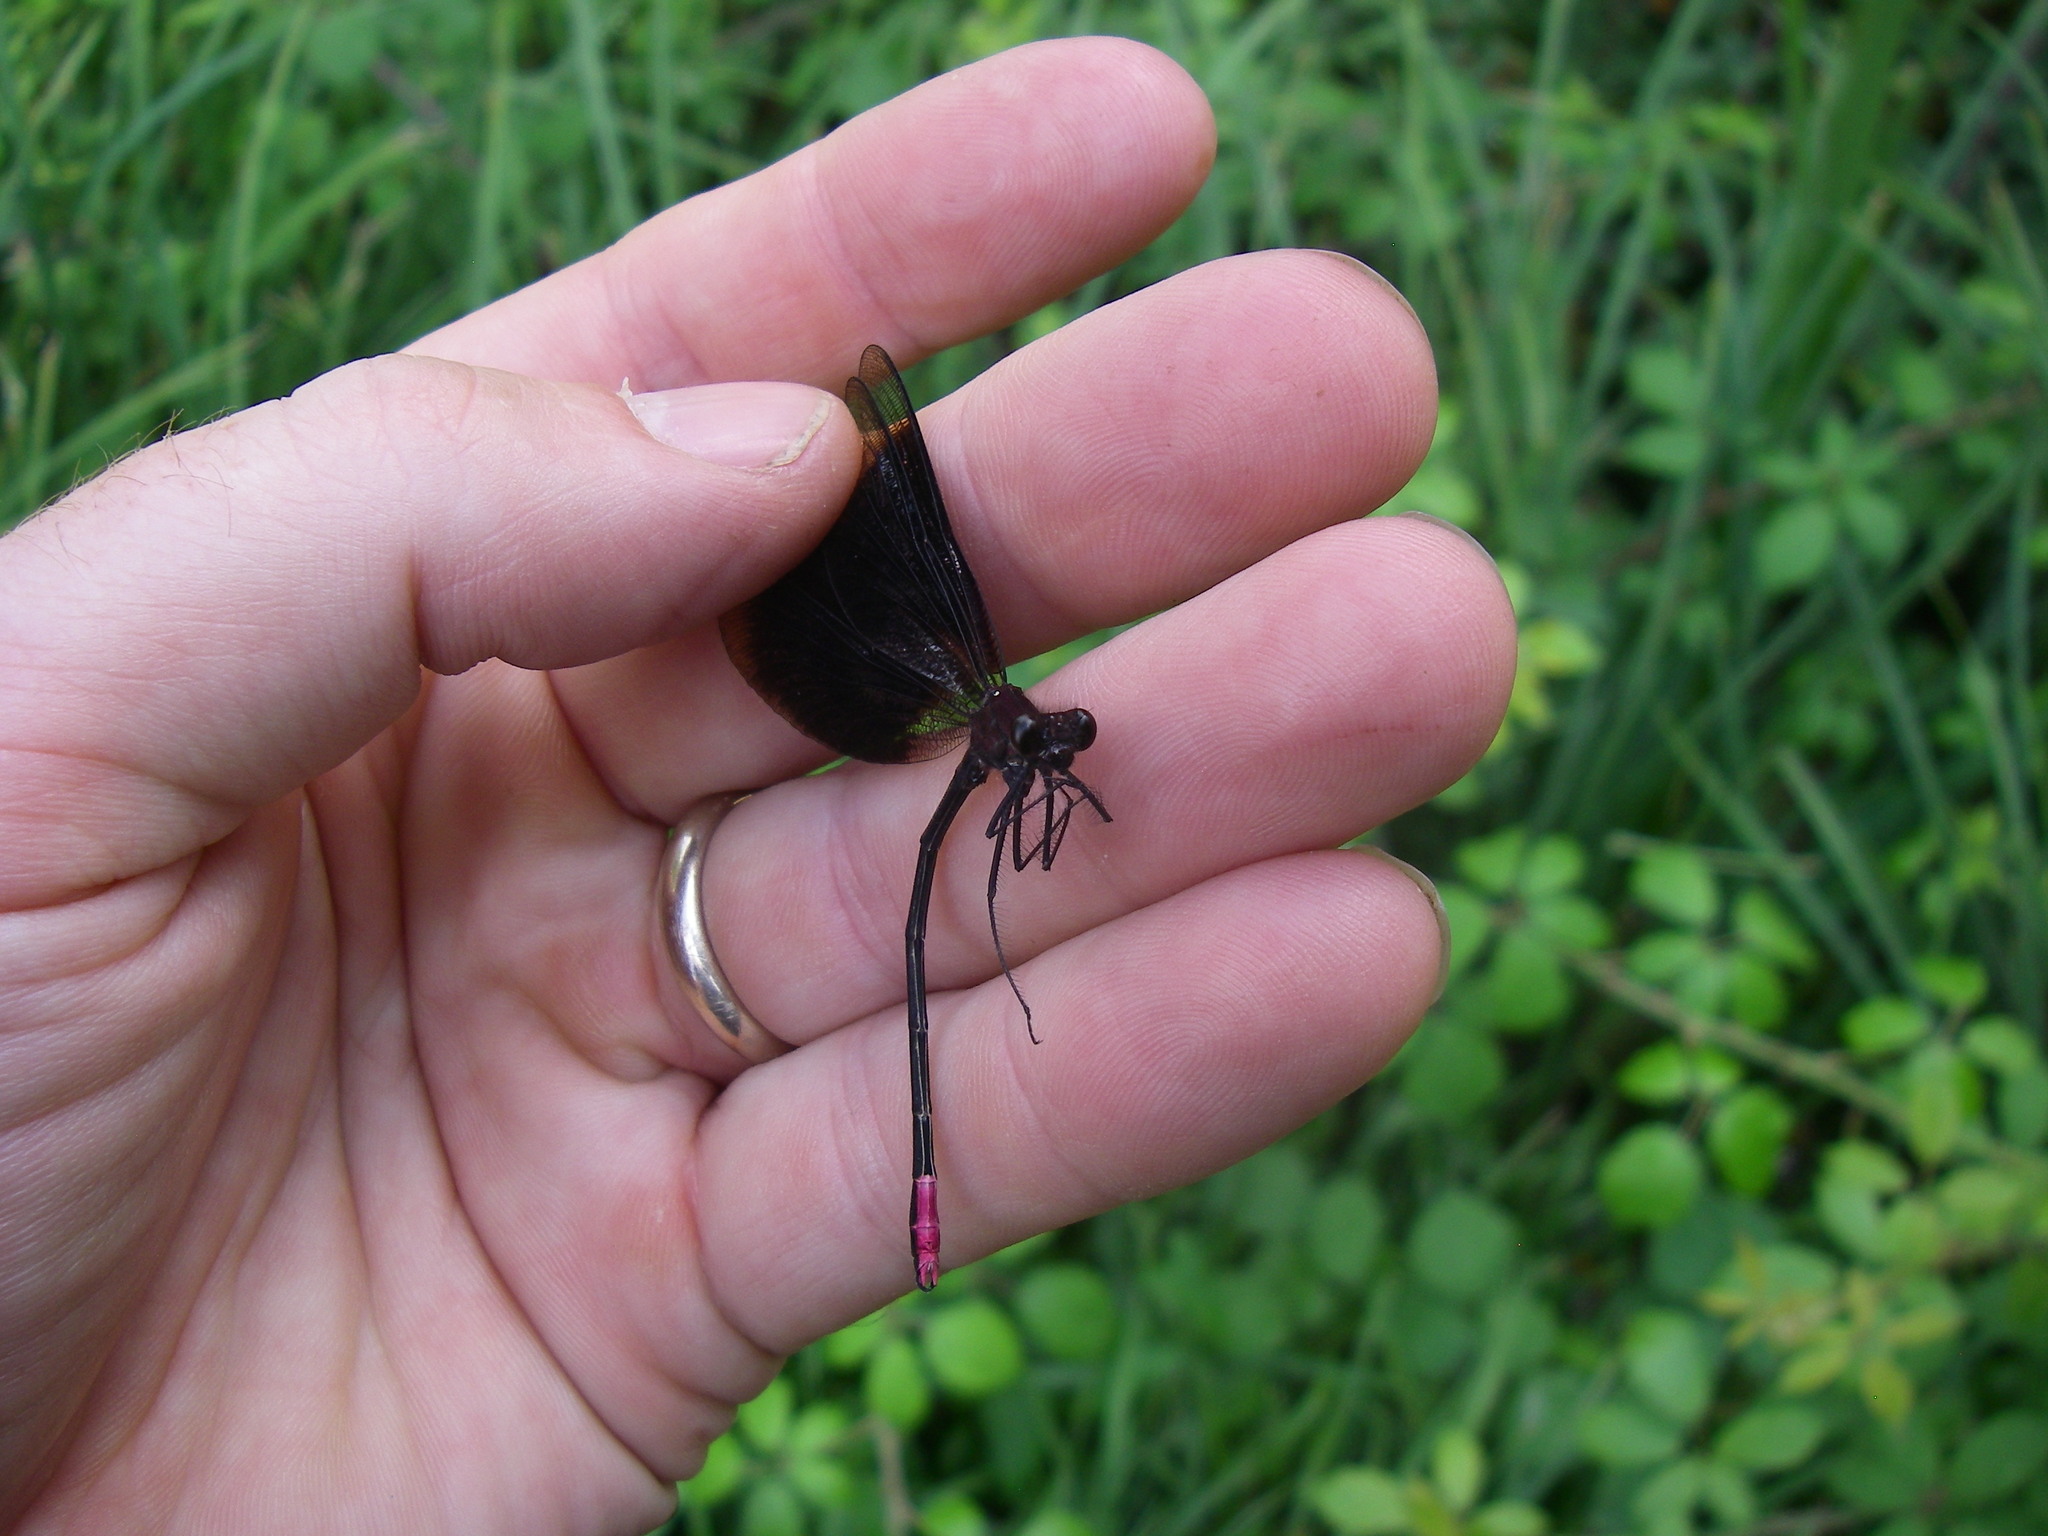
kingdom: Animalia
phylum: Arthropoda
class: Insecta
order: Odonata
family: Calopterygidae
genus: Calopteryx
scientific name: Calopteryx haemorrhoidalis
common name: Copper demoiselle
